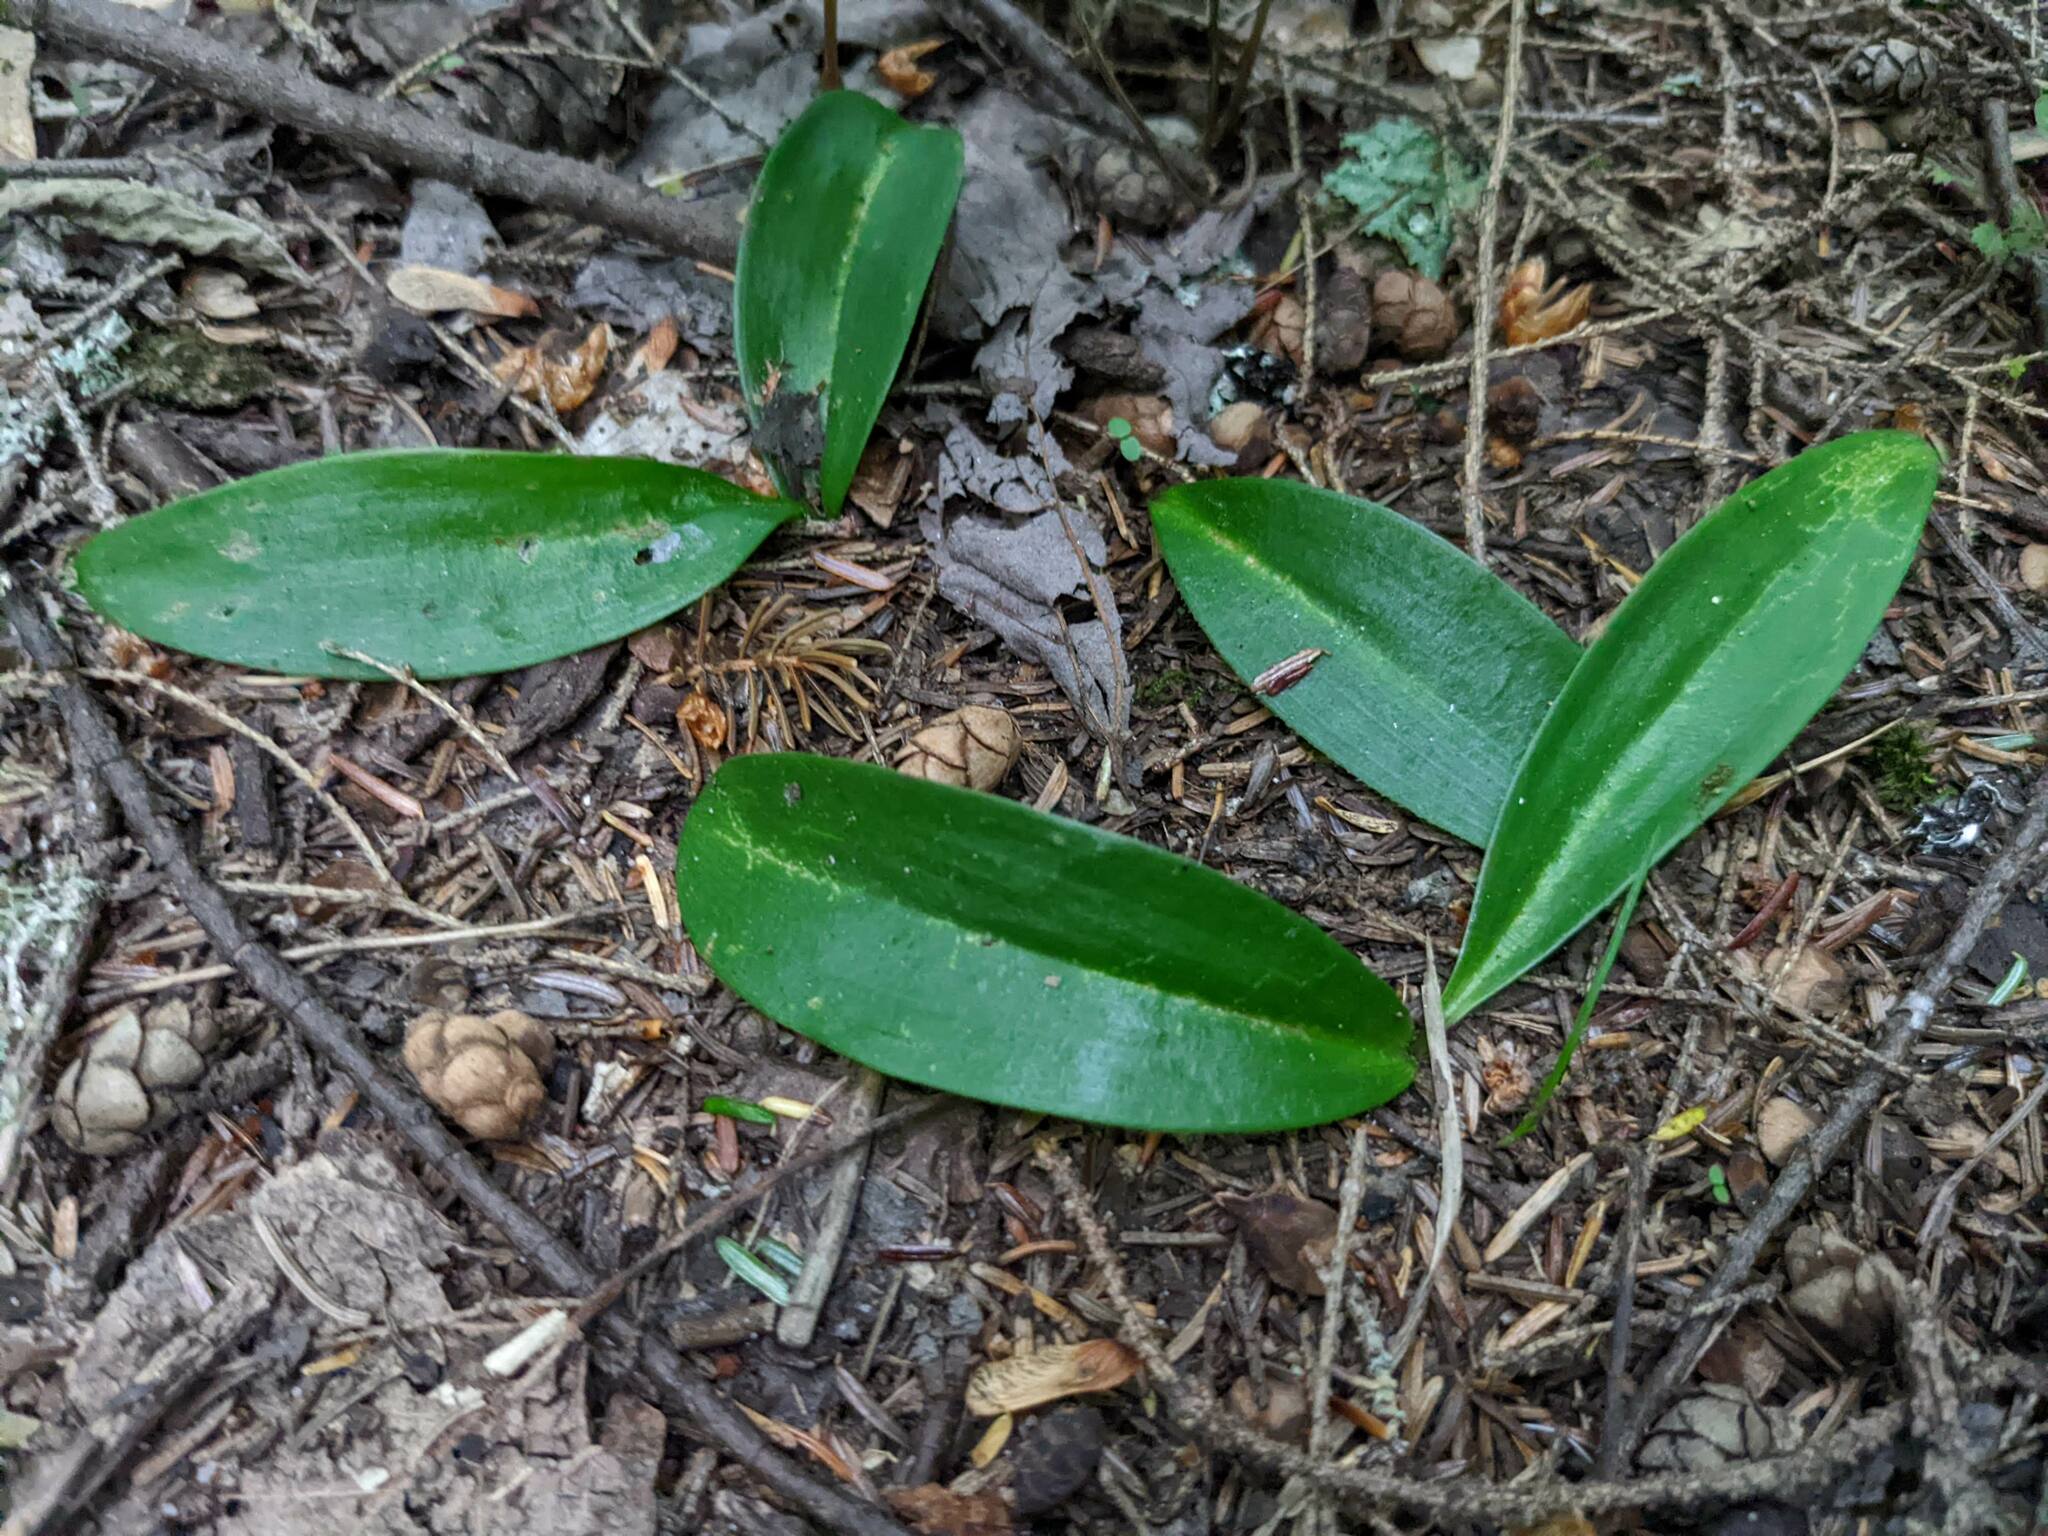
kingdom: Plantae
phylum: Tracheophyta
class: Liliopsida
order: Liliales
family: Liliaceae
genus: Clintonia
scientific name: Clintonia borealis
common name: Yellow clintonia
